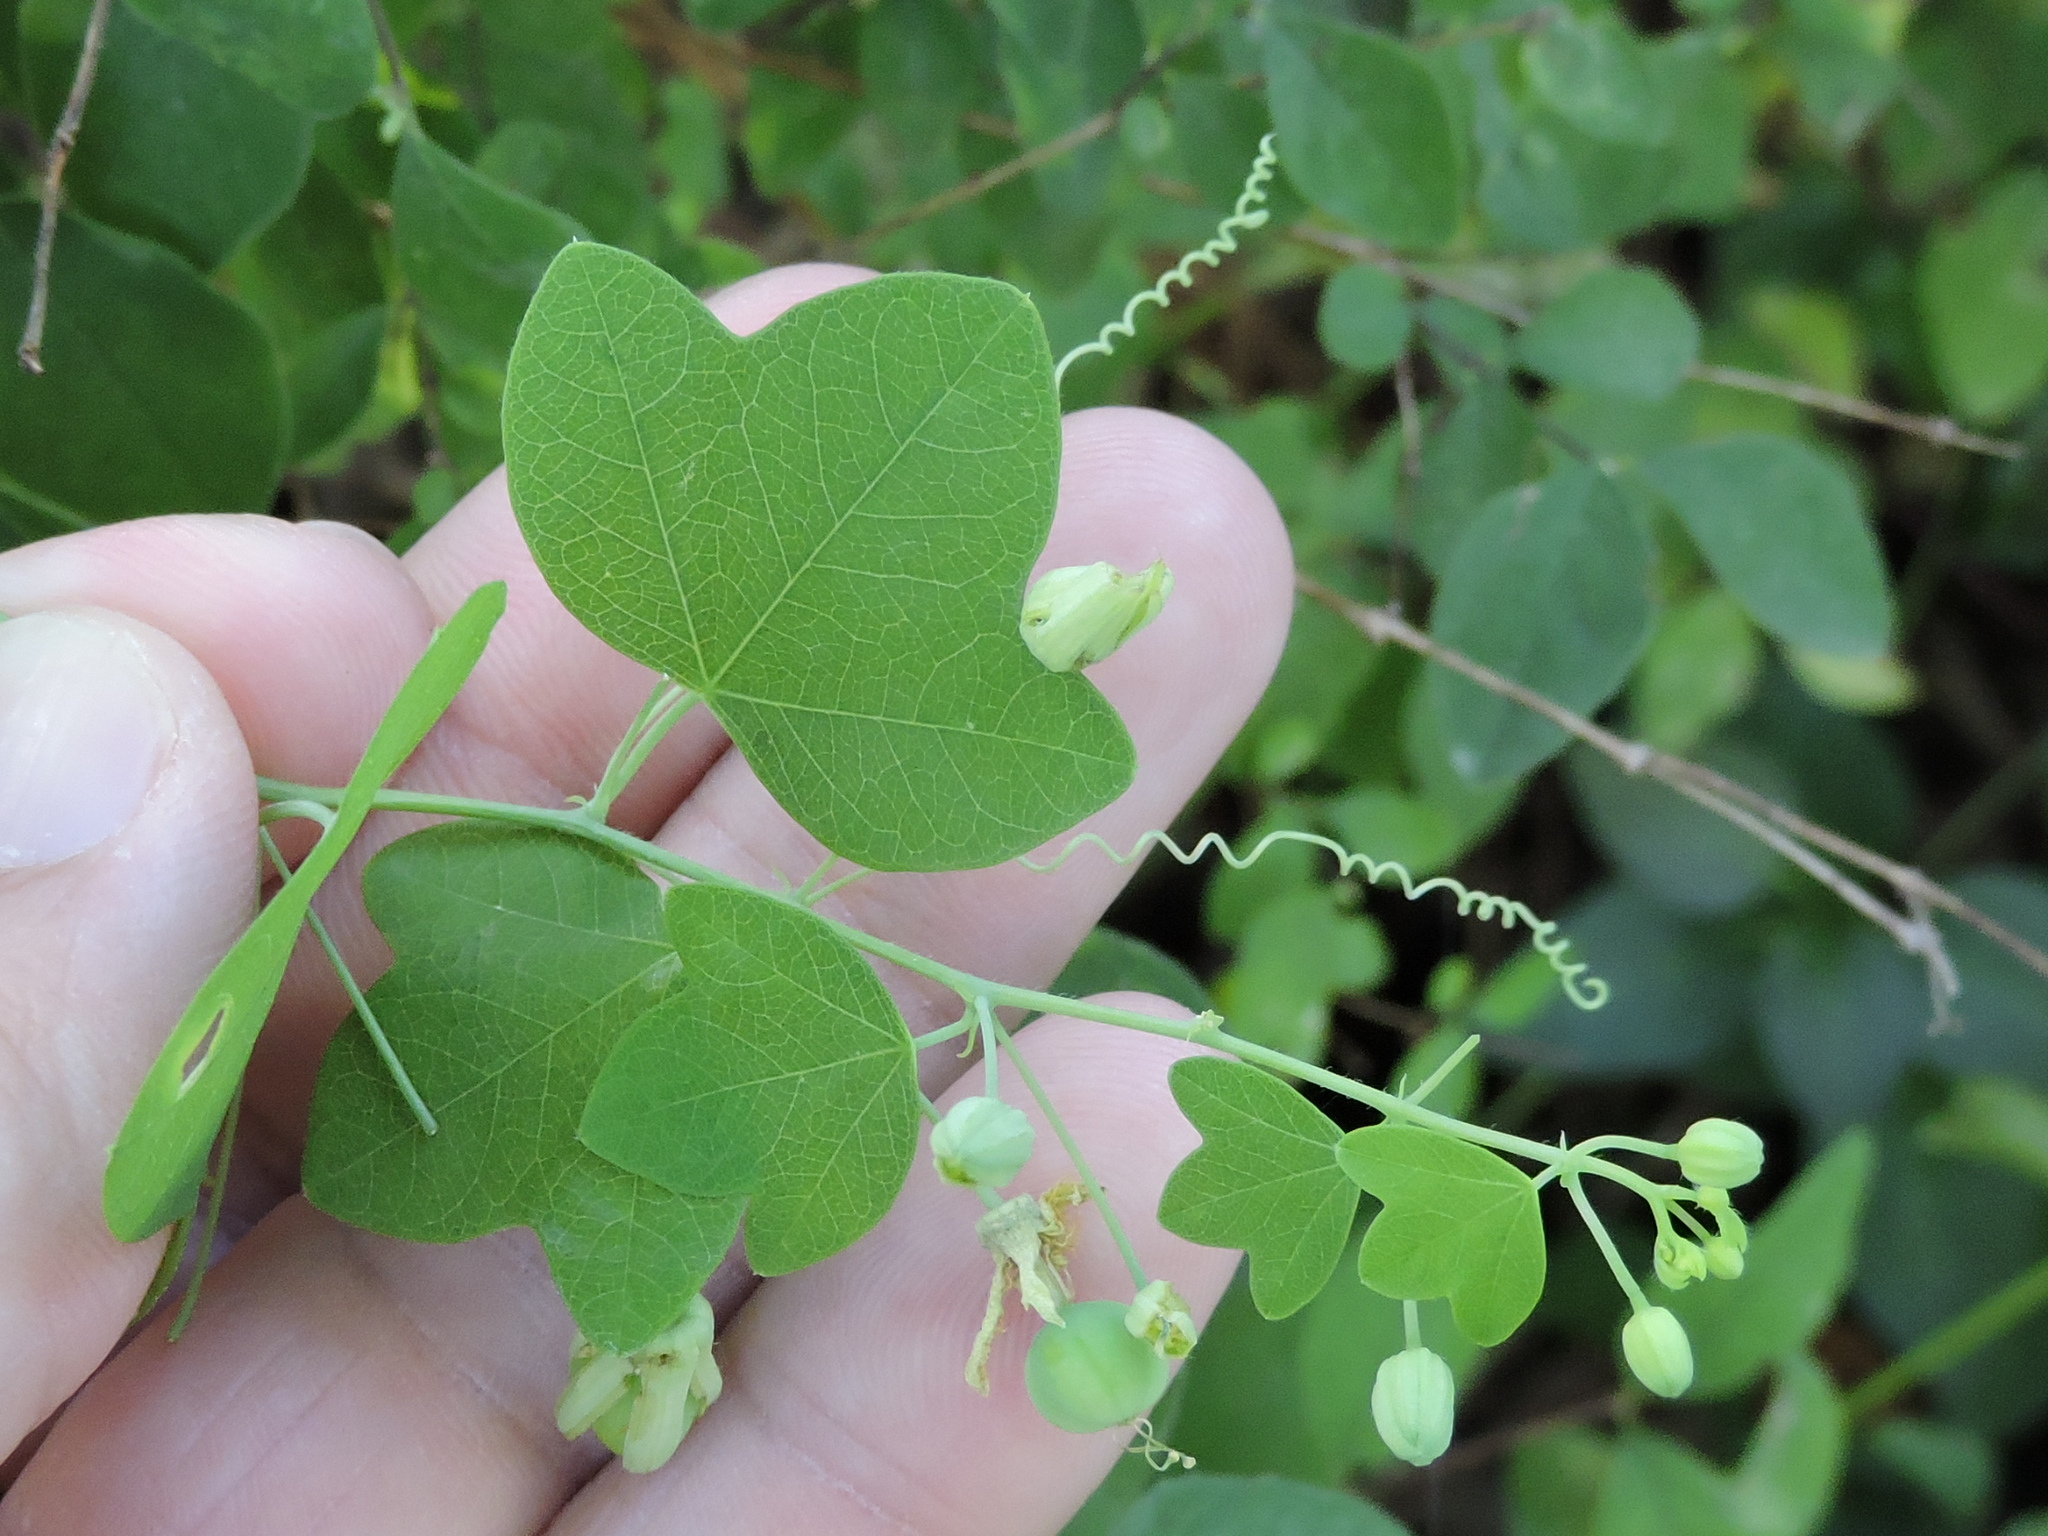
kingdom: Plantae
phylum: Tracheophyta
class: Magnoliopsida
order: Malpighiales
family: Passifloraceae
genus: Passiflora
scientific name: Passiflora lutea
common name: Yellow passionflower
